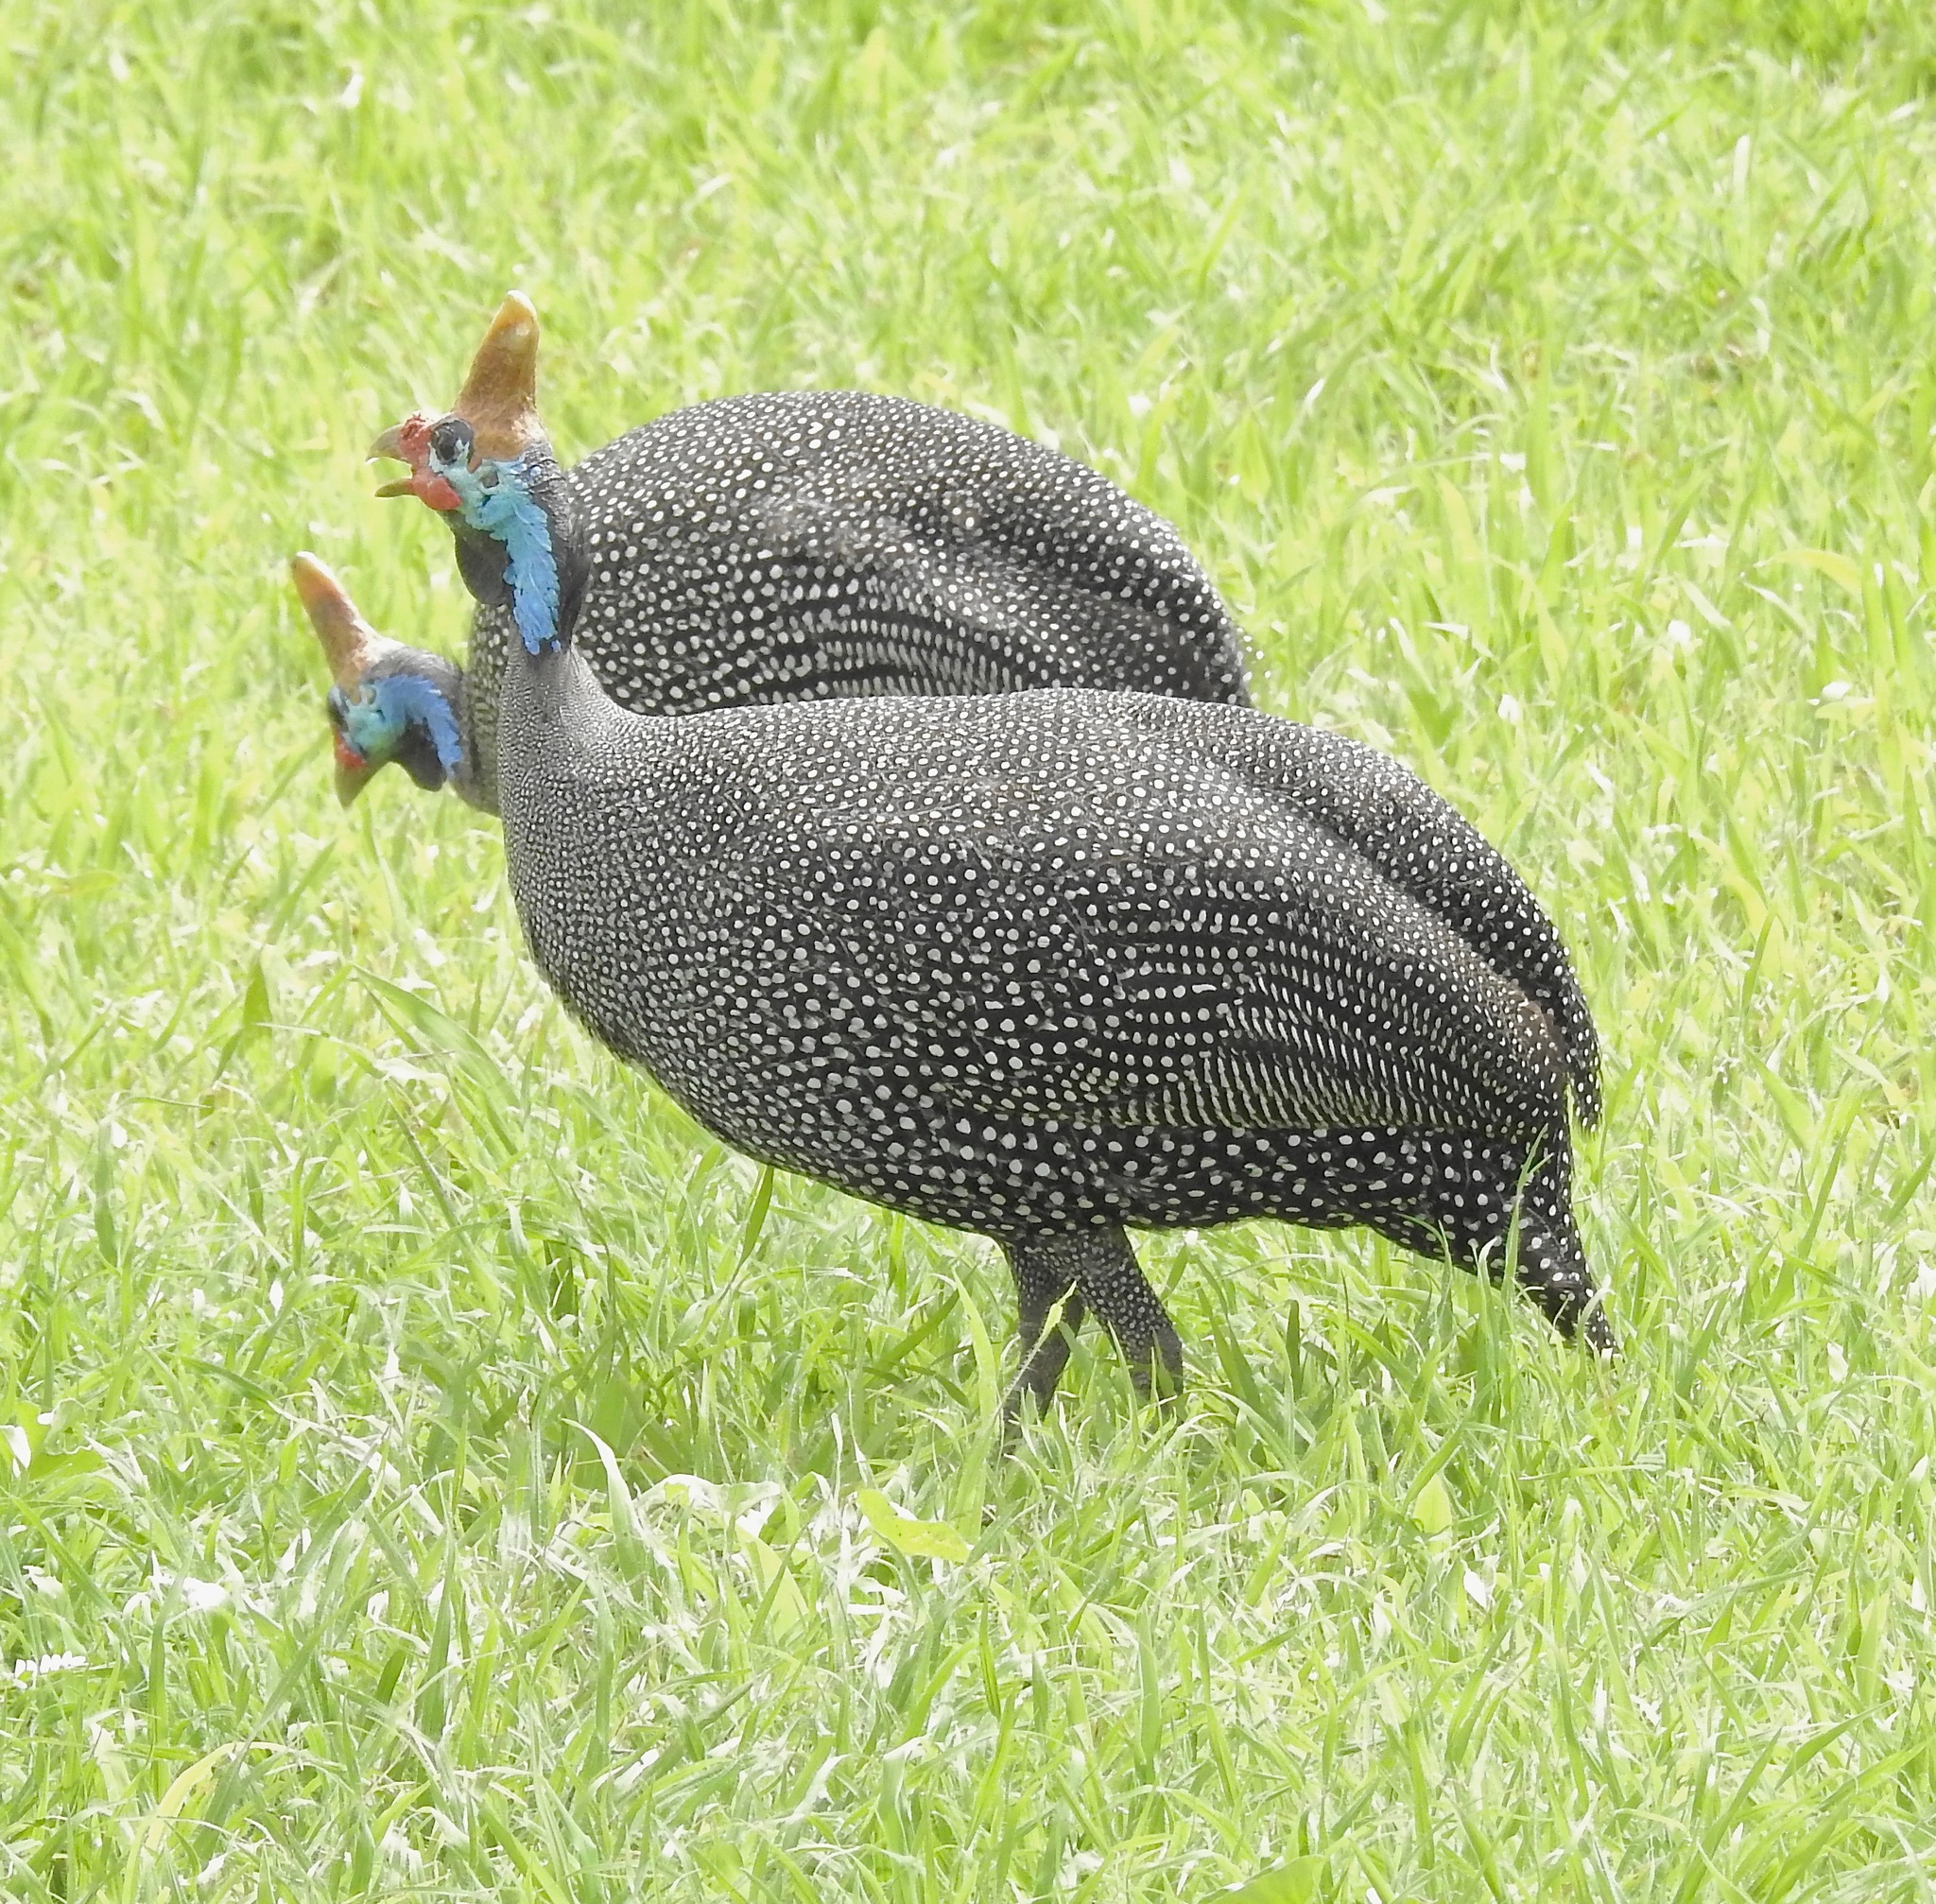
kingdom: Animalia
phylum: Chordata
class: Aves
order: Galliformes
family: Numididae
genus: Numida
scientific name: Numida meleagris
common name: Helmeted guineafowl
